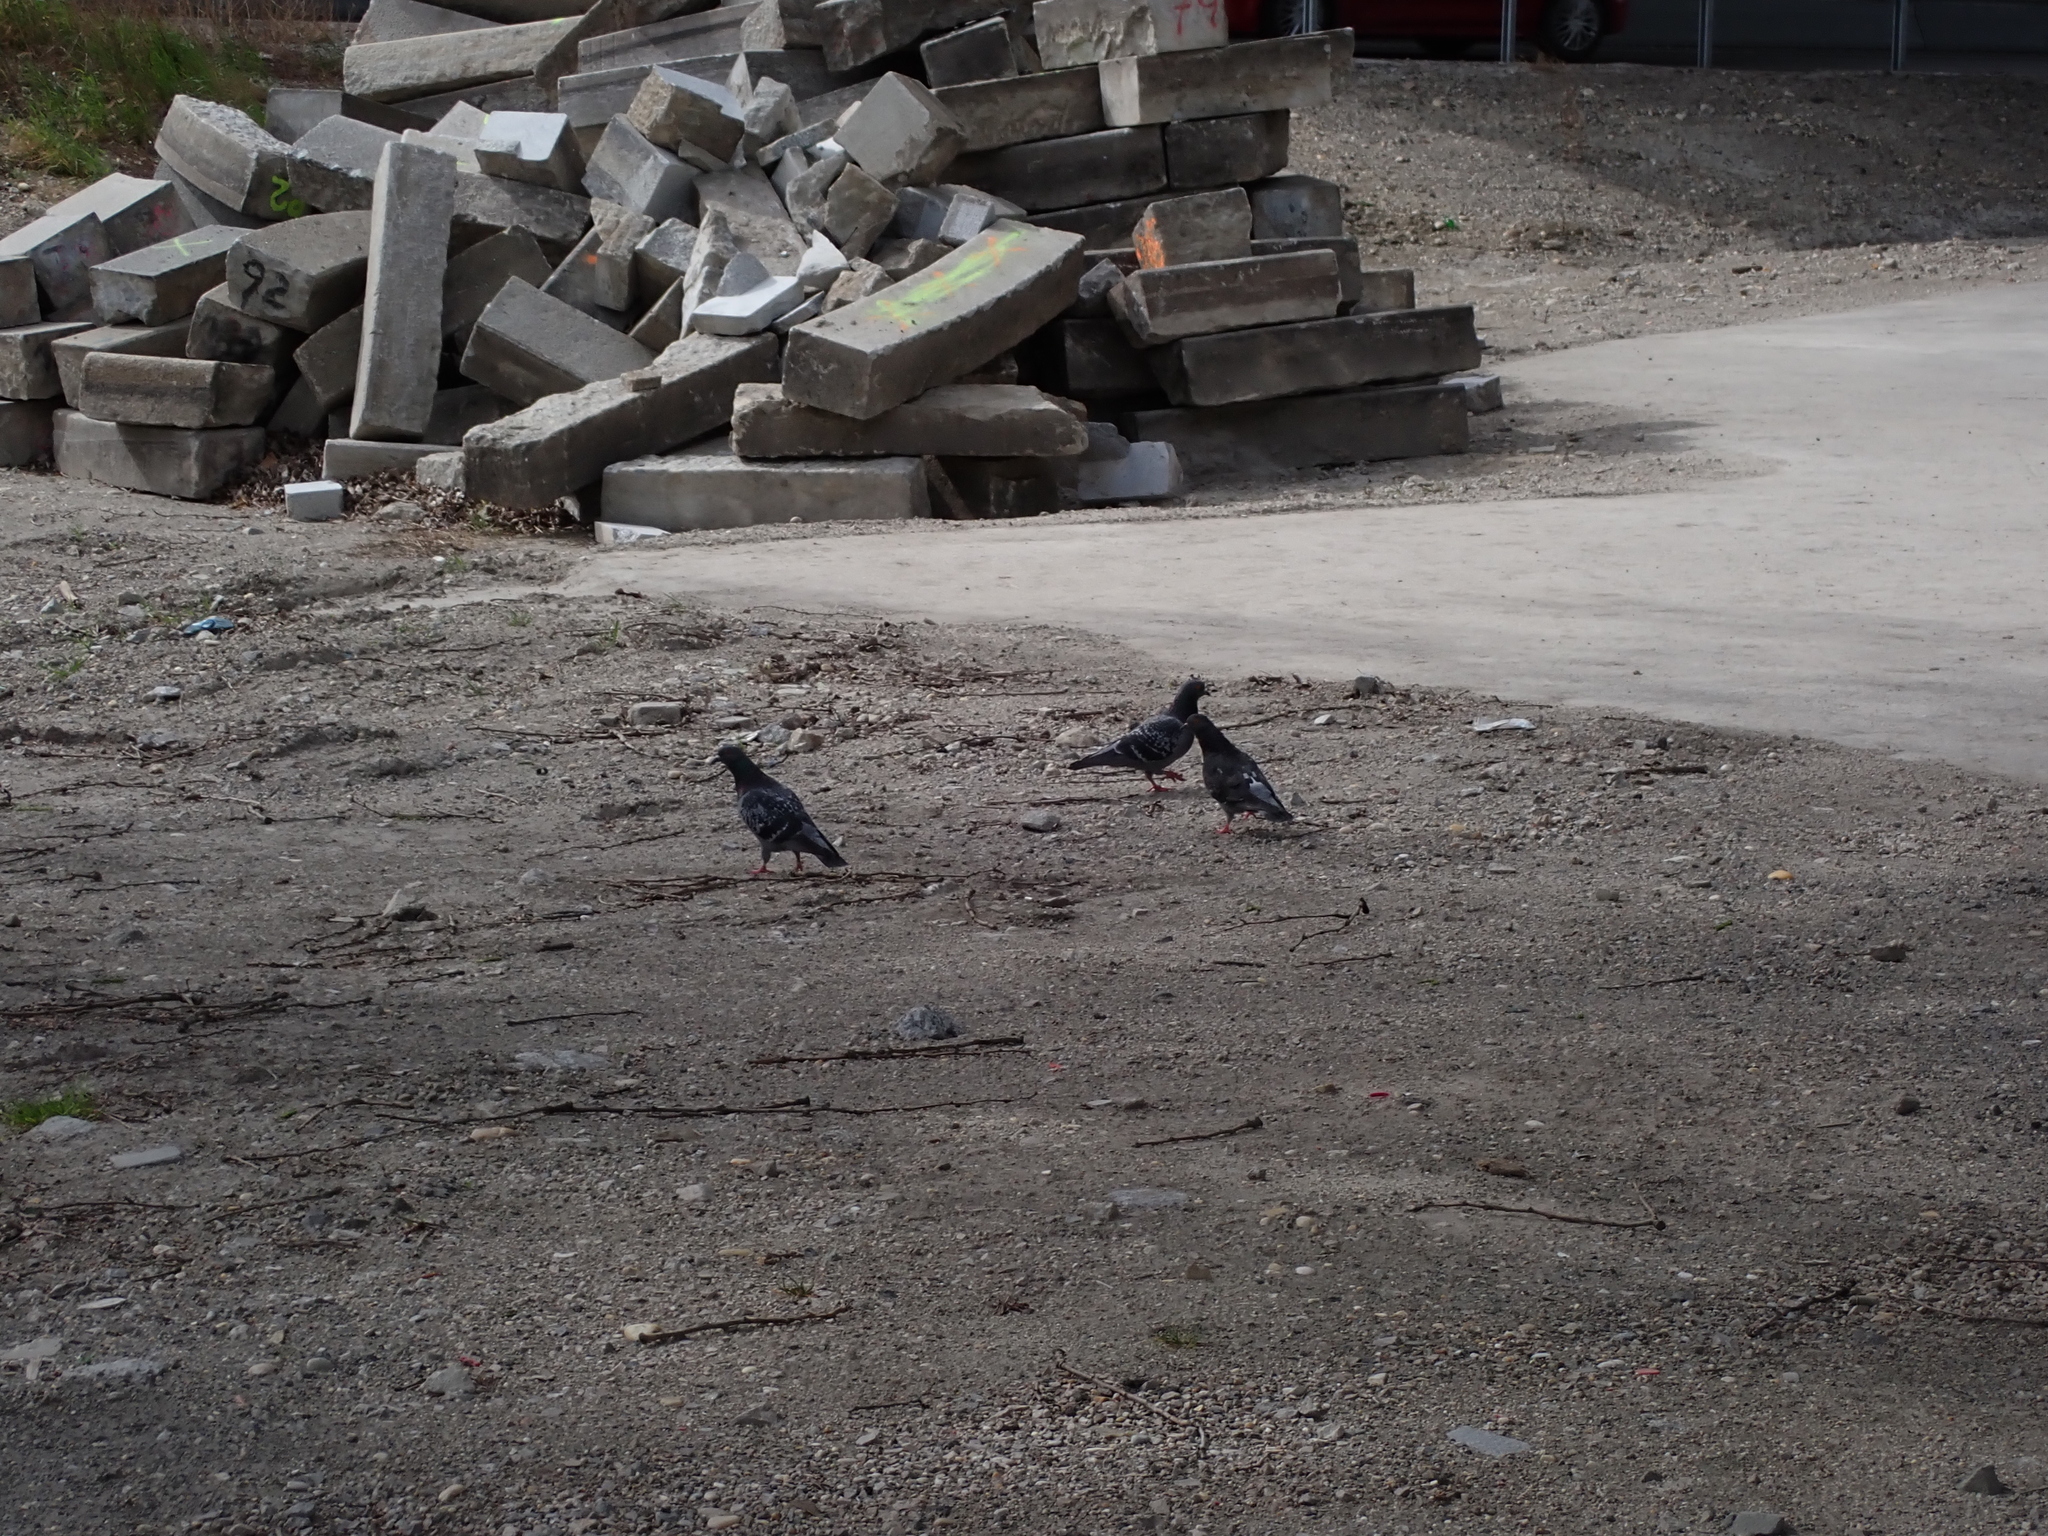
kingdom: Animalia
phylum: Chordata
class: Aves
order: Columbiformes
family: Columbidae
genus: Columba
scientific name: Columba livia
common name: Rock pigeon
